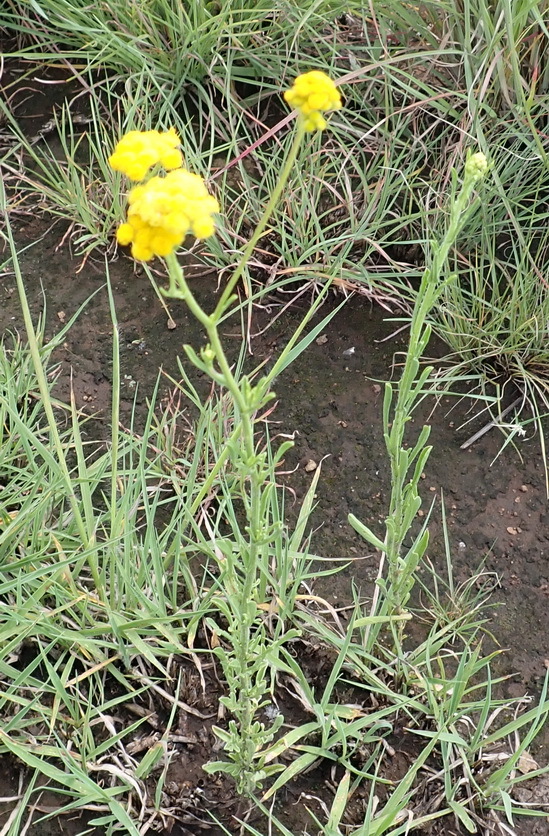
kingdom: Plantae
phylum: Tracheophyta
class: Magnoliopsida
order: Asterales
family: Asteraceae
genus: Nidorella
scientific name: Nidorella resedifolia
